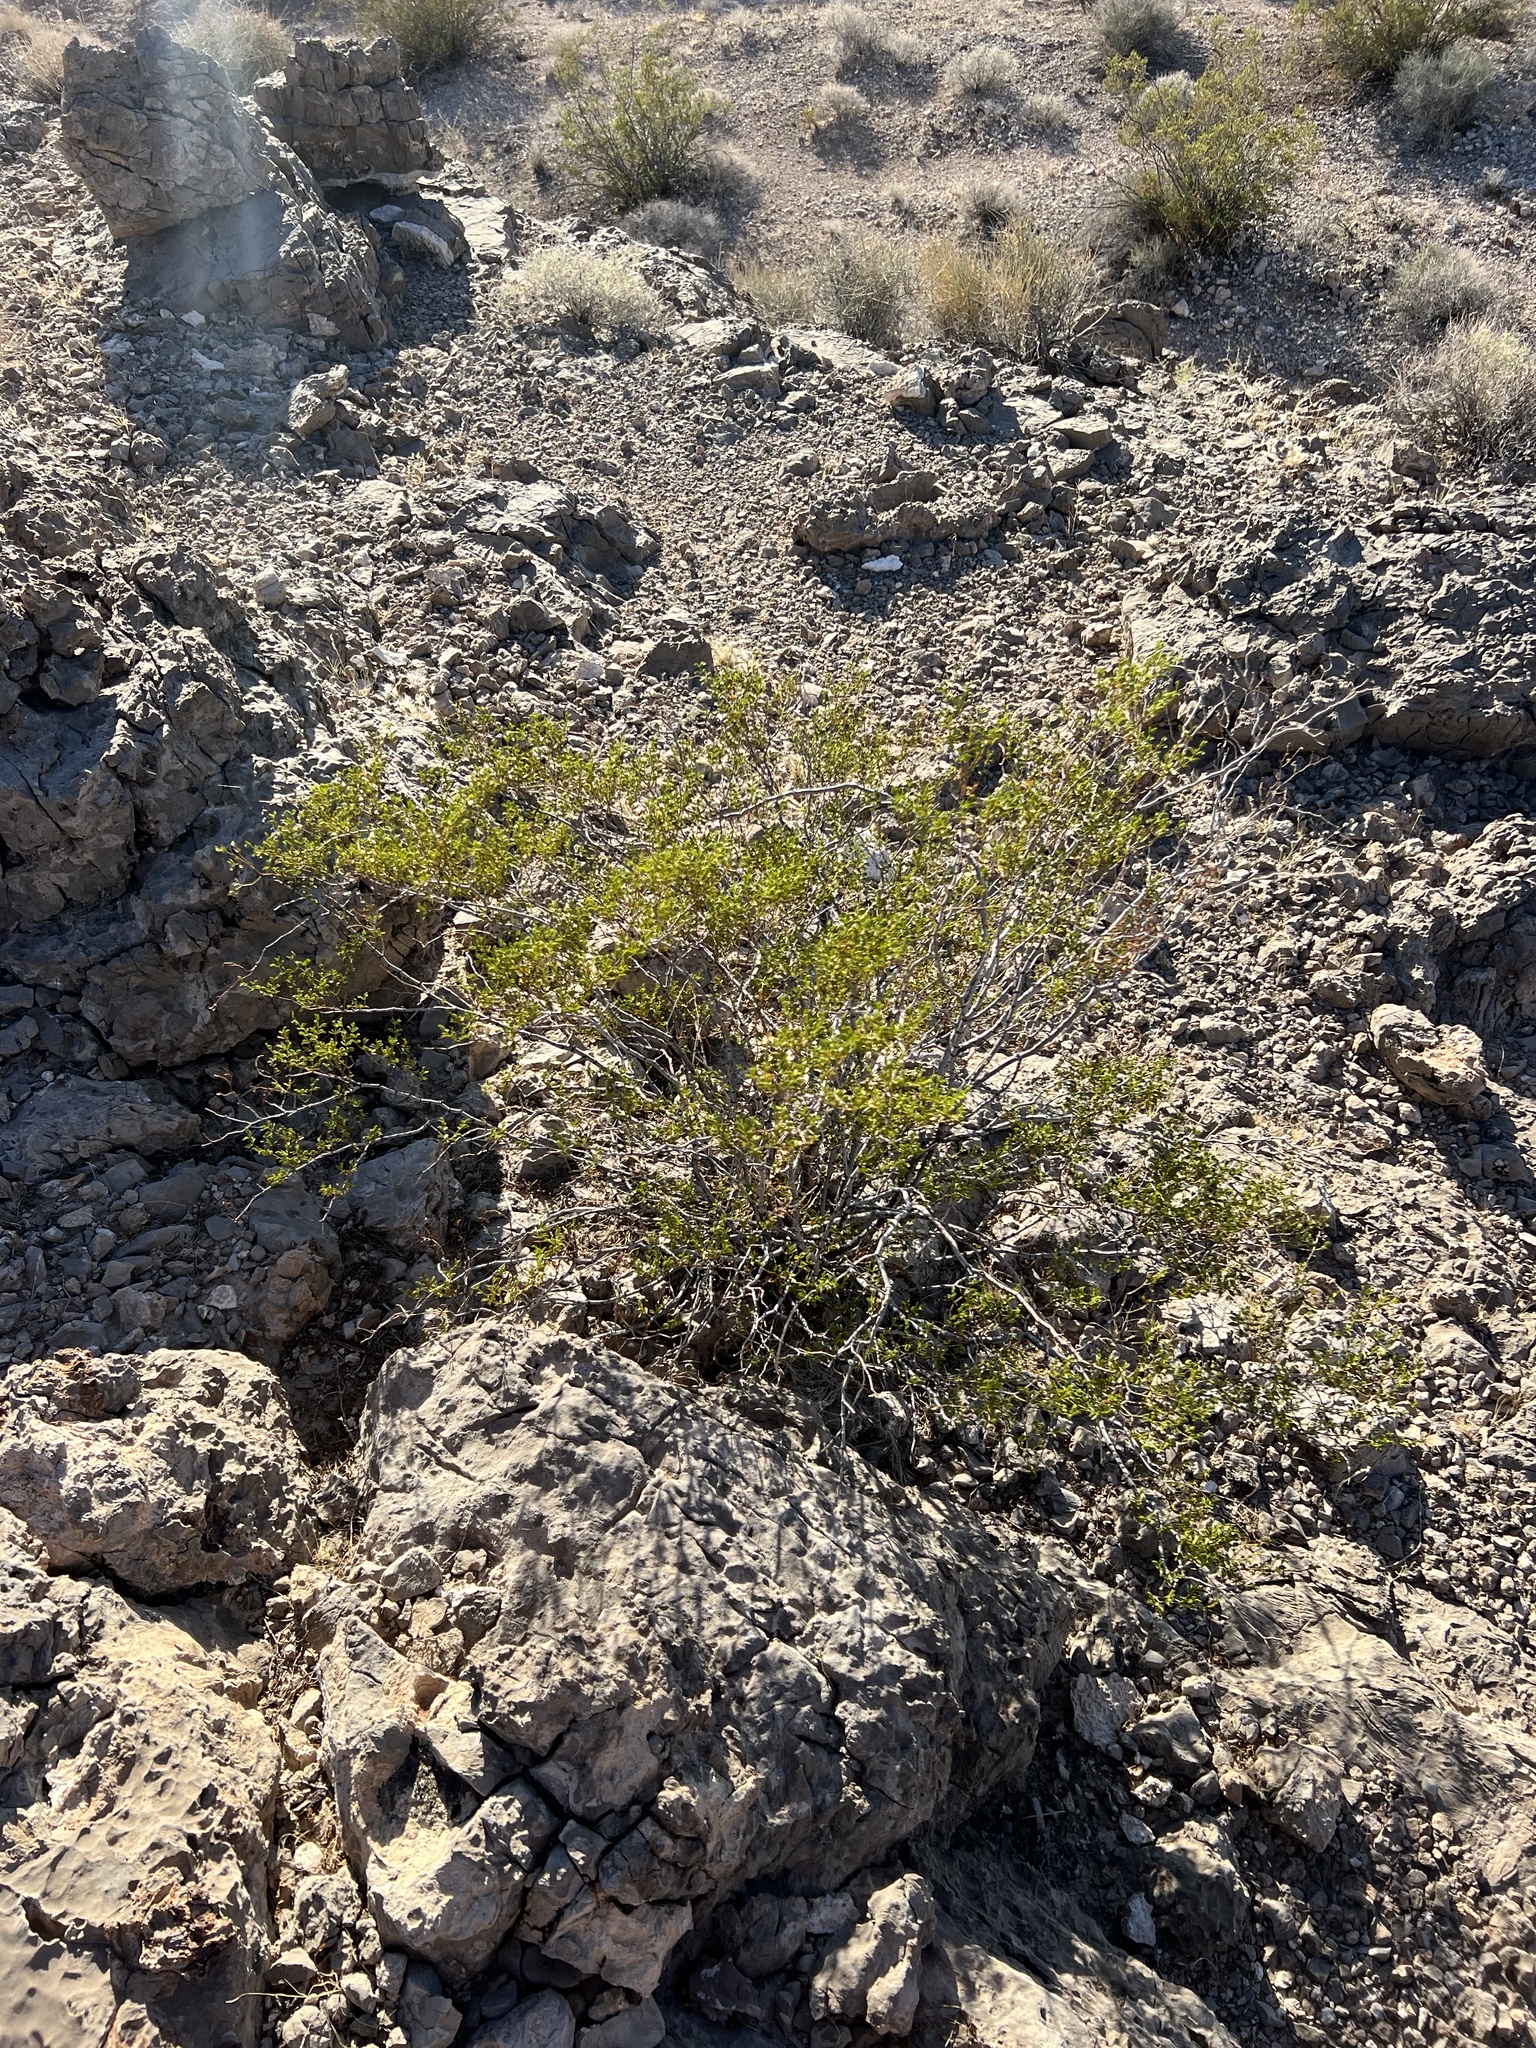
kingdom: Plantae
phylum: Tracheophyta
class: Magnoliopsida
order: Zygophyllales
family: Zygophyllaceae
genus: Larrea
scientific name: Larrea tridentata
